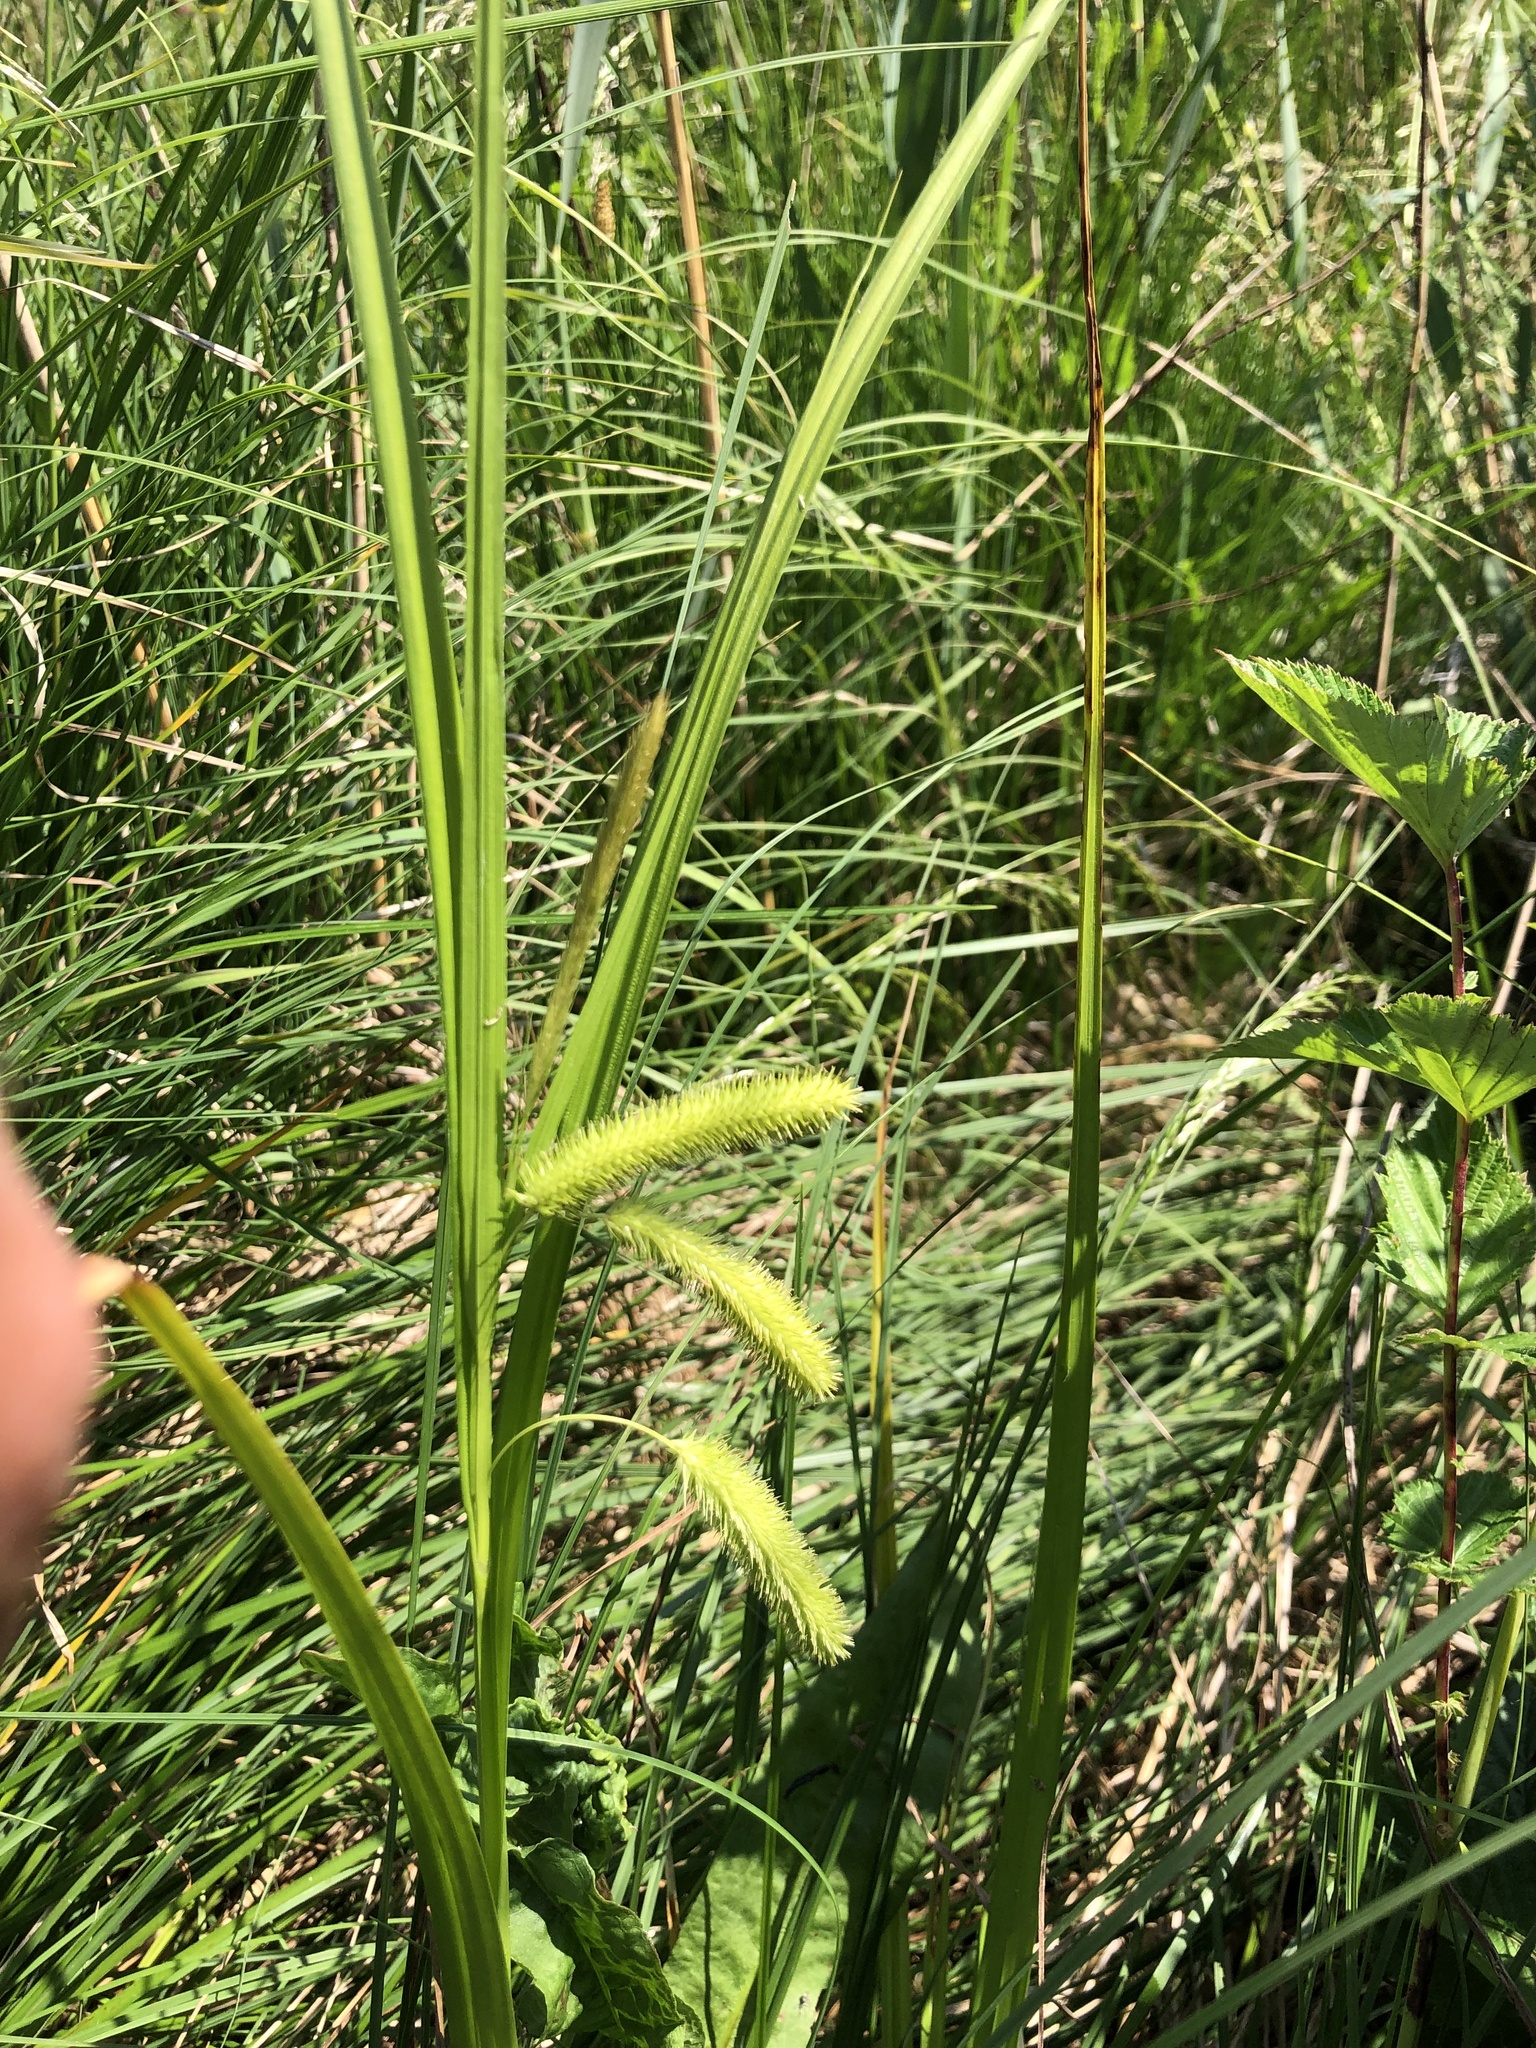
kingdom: Plantae
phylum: Tracheophyta
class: Liliopsida
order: Poales
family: Cyperaceae
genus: Carex
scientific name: Carex pseudocyperus
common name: Cyperus sedge
